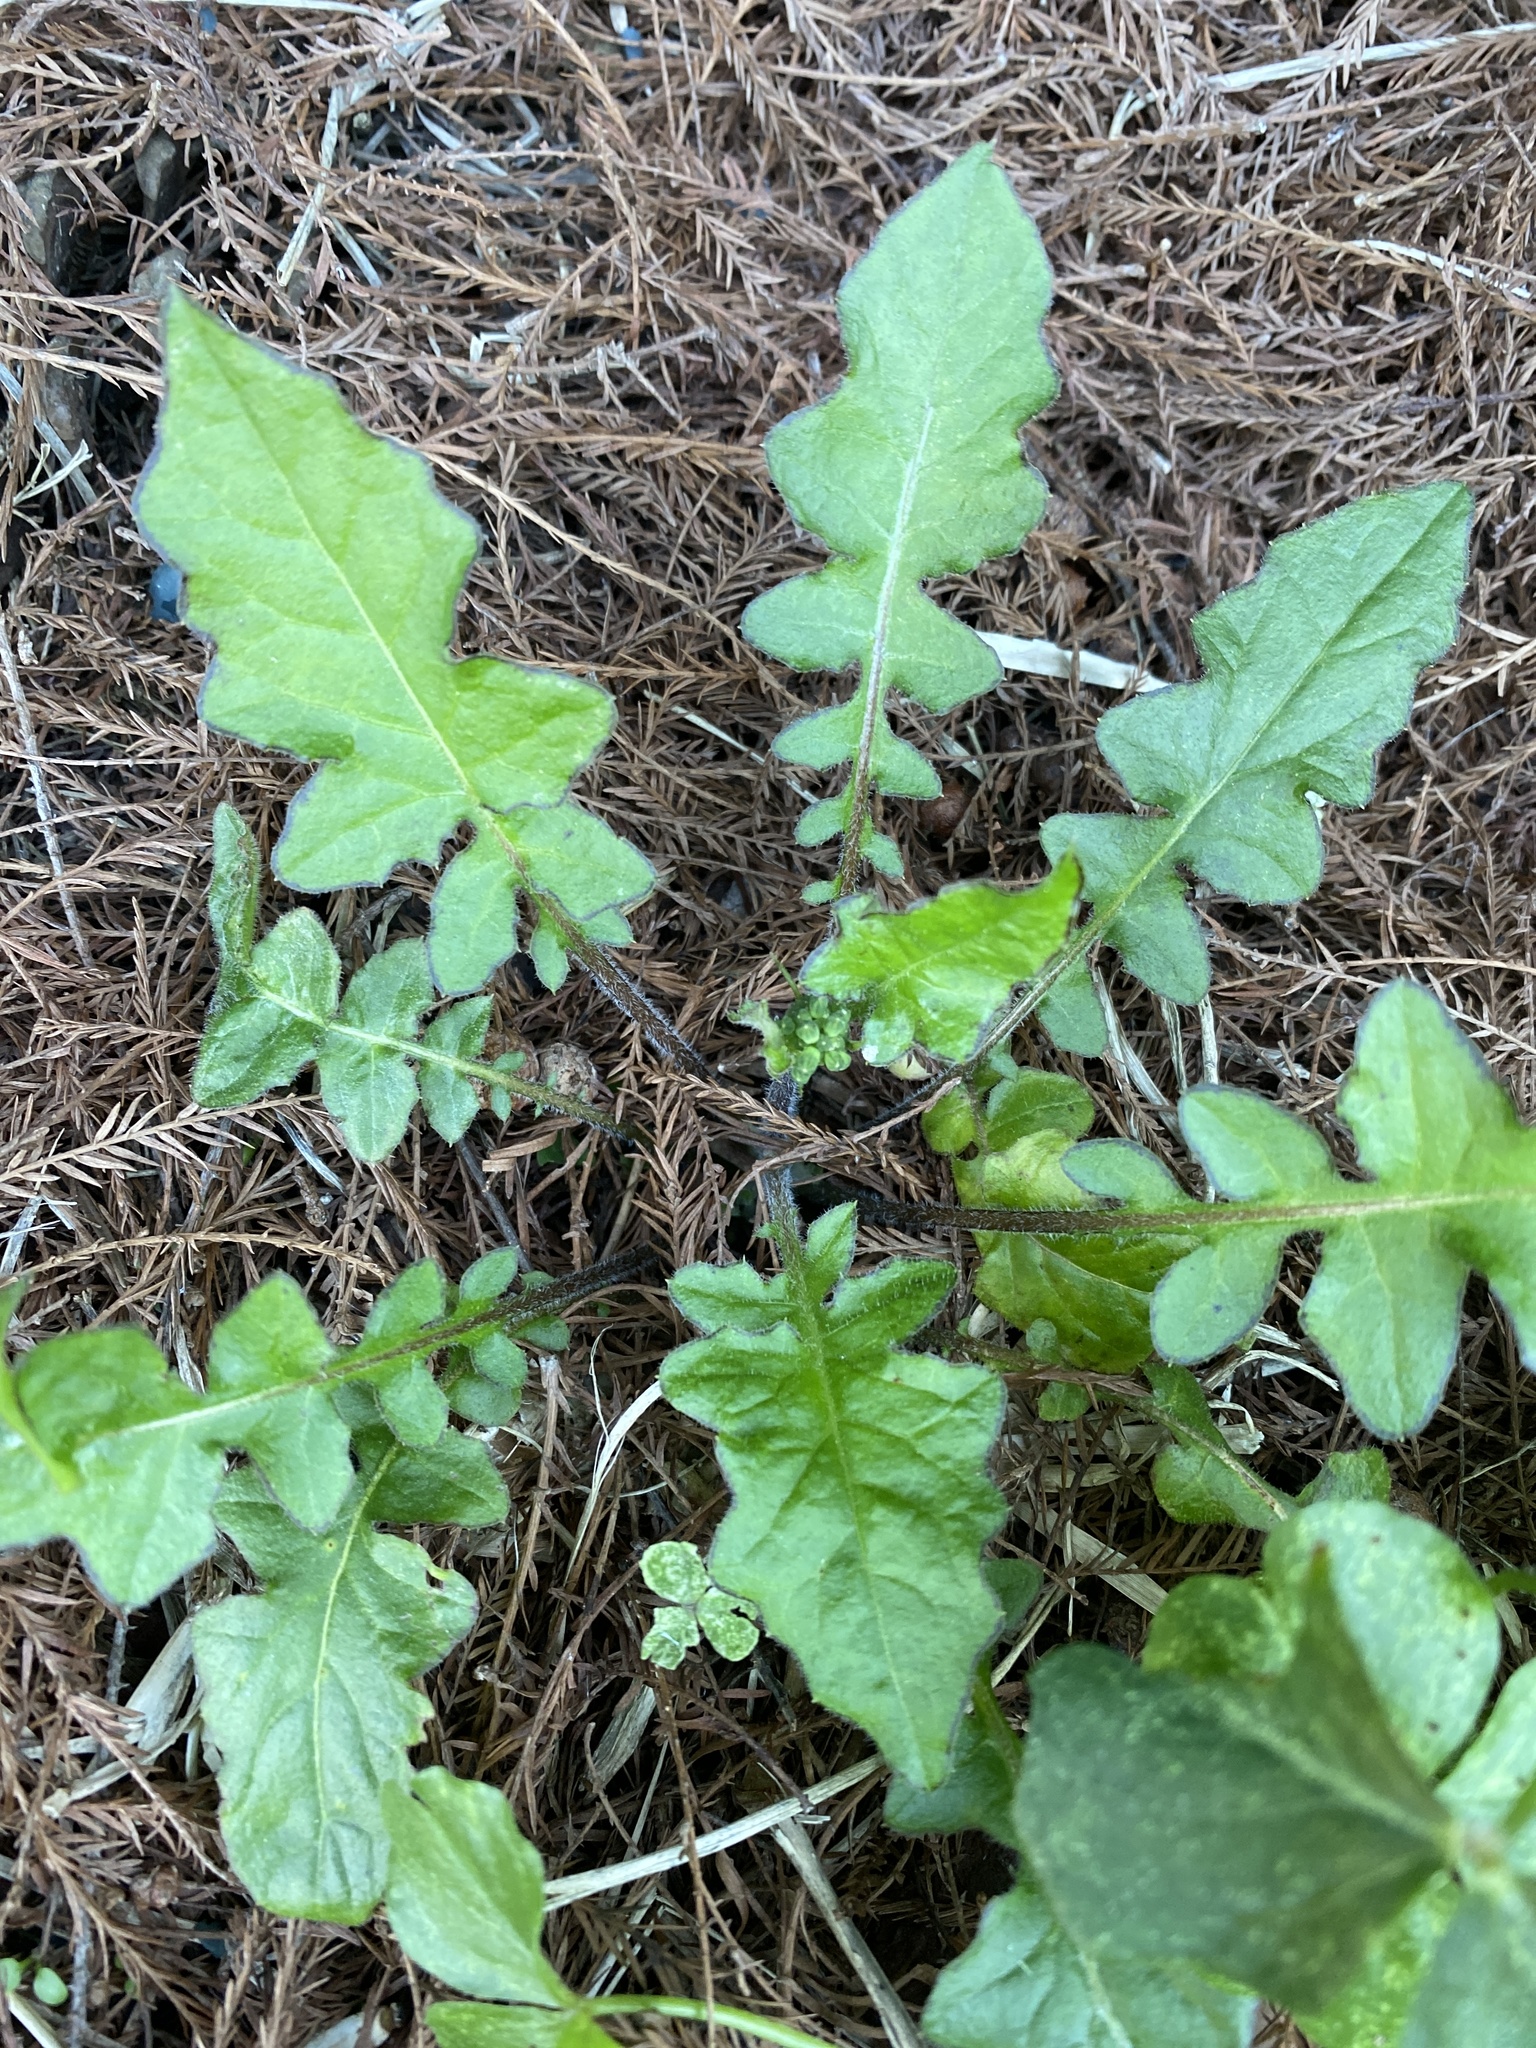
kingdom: Plantae
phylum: Tracheophyta
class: Magnoliopsida
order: Asterales
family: Asteraceae
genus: Youngia
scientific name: Youngia japonica
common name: Oriental false hawksbeard
